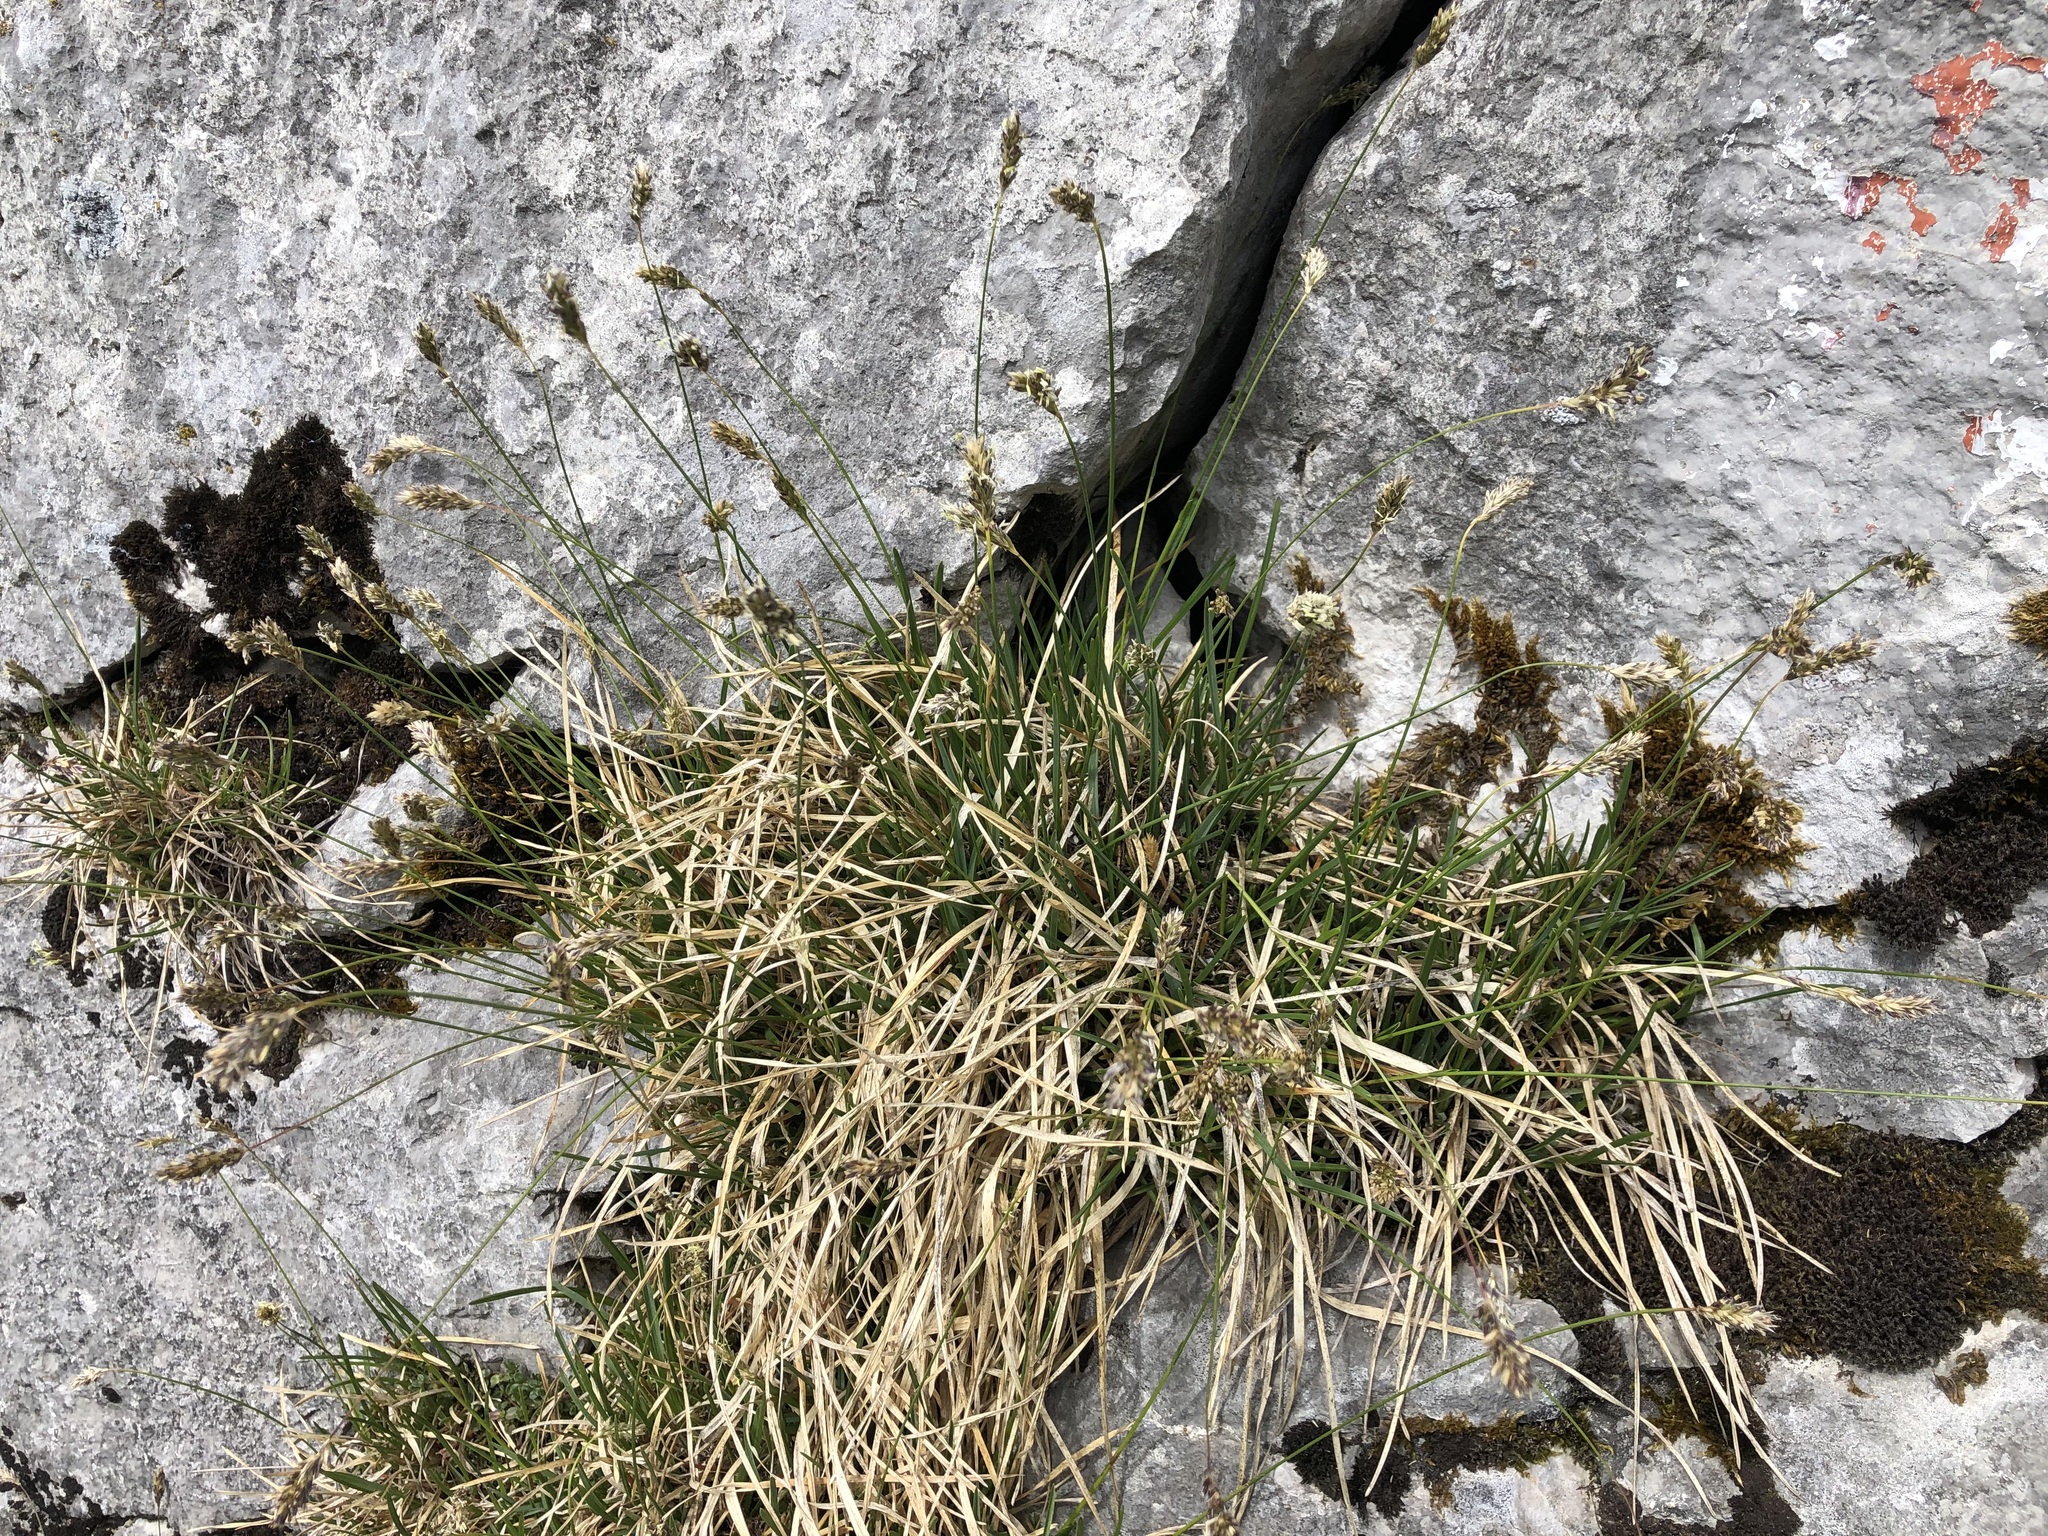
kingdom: Plantae
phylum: Tracheophyta
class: Liliopsida
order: Poales
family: Poaceae
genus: Sesleria
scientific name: Sesleria caerulea
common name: Blue moor-grass
